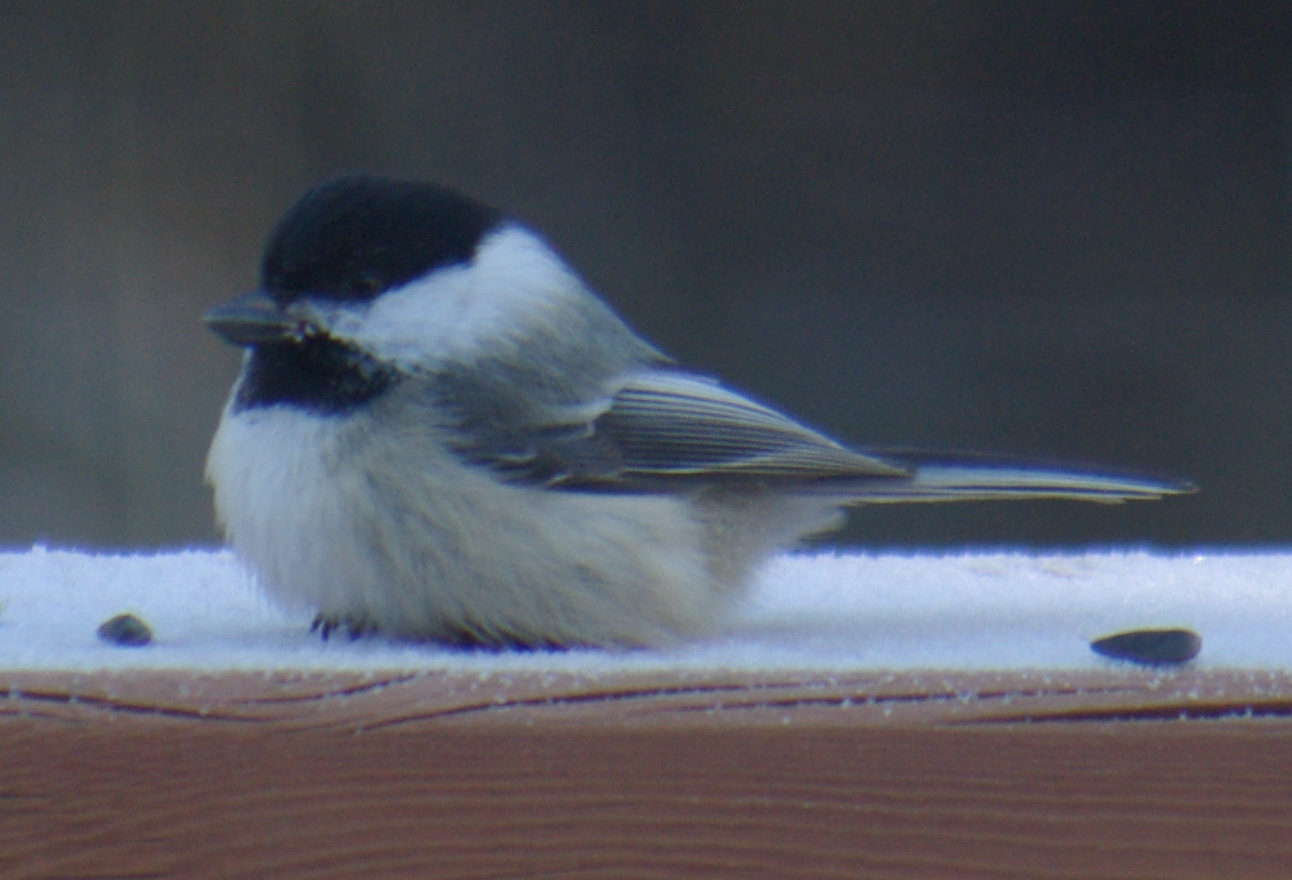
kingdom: Animalia
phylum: Chordata
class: Aves
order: Passeriformes
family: Paridae
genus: Poecile
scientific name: Poecile atricapillus
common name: Black-capped chickadee
